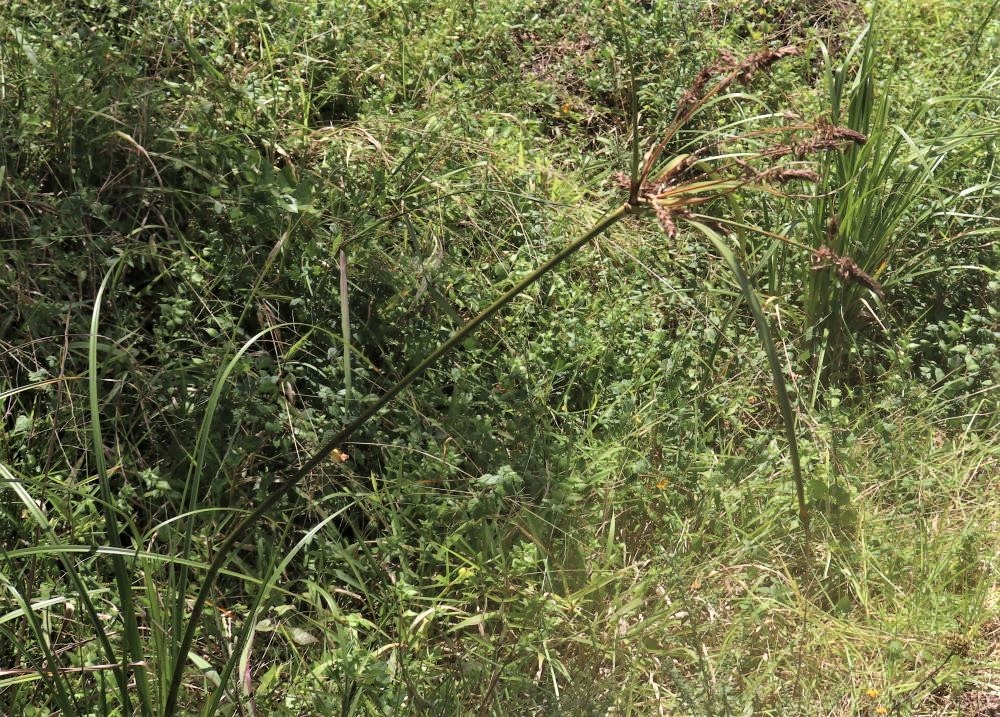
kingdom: Plantae
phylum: Tracheophyta
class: Liliopsida
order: Poales
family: Cyperaceae
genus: Cyperus
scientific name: Cyperus thunbergii
